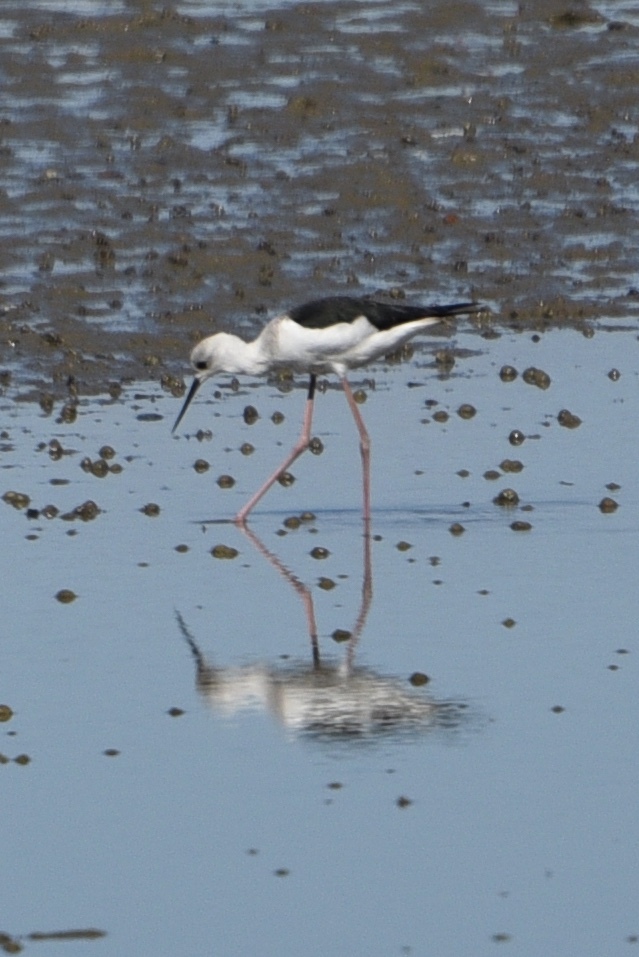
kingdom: Animalia
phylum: Chordata
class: Aves
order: Charadriiformes
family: Recurvirostridae
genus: Himantopus
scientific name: Himantopus leucocephalus
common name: White-headed stilt
